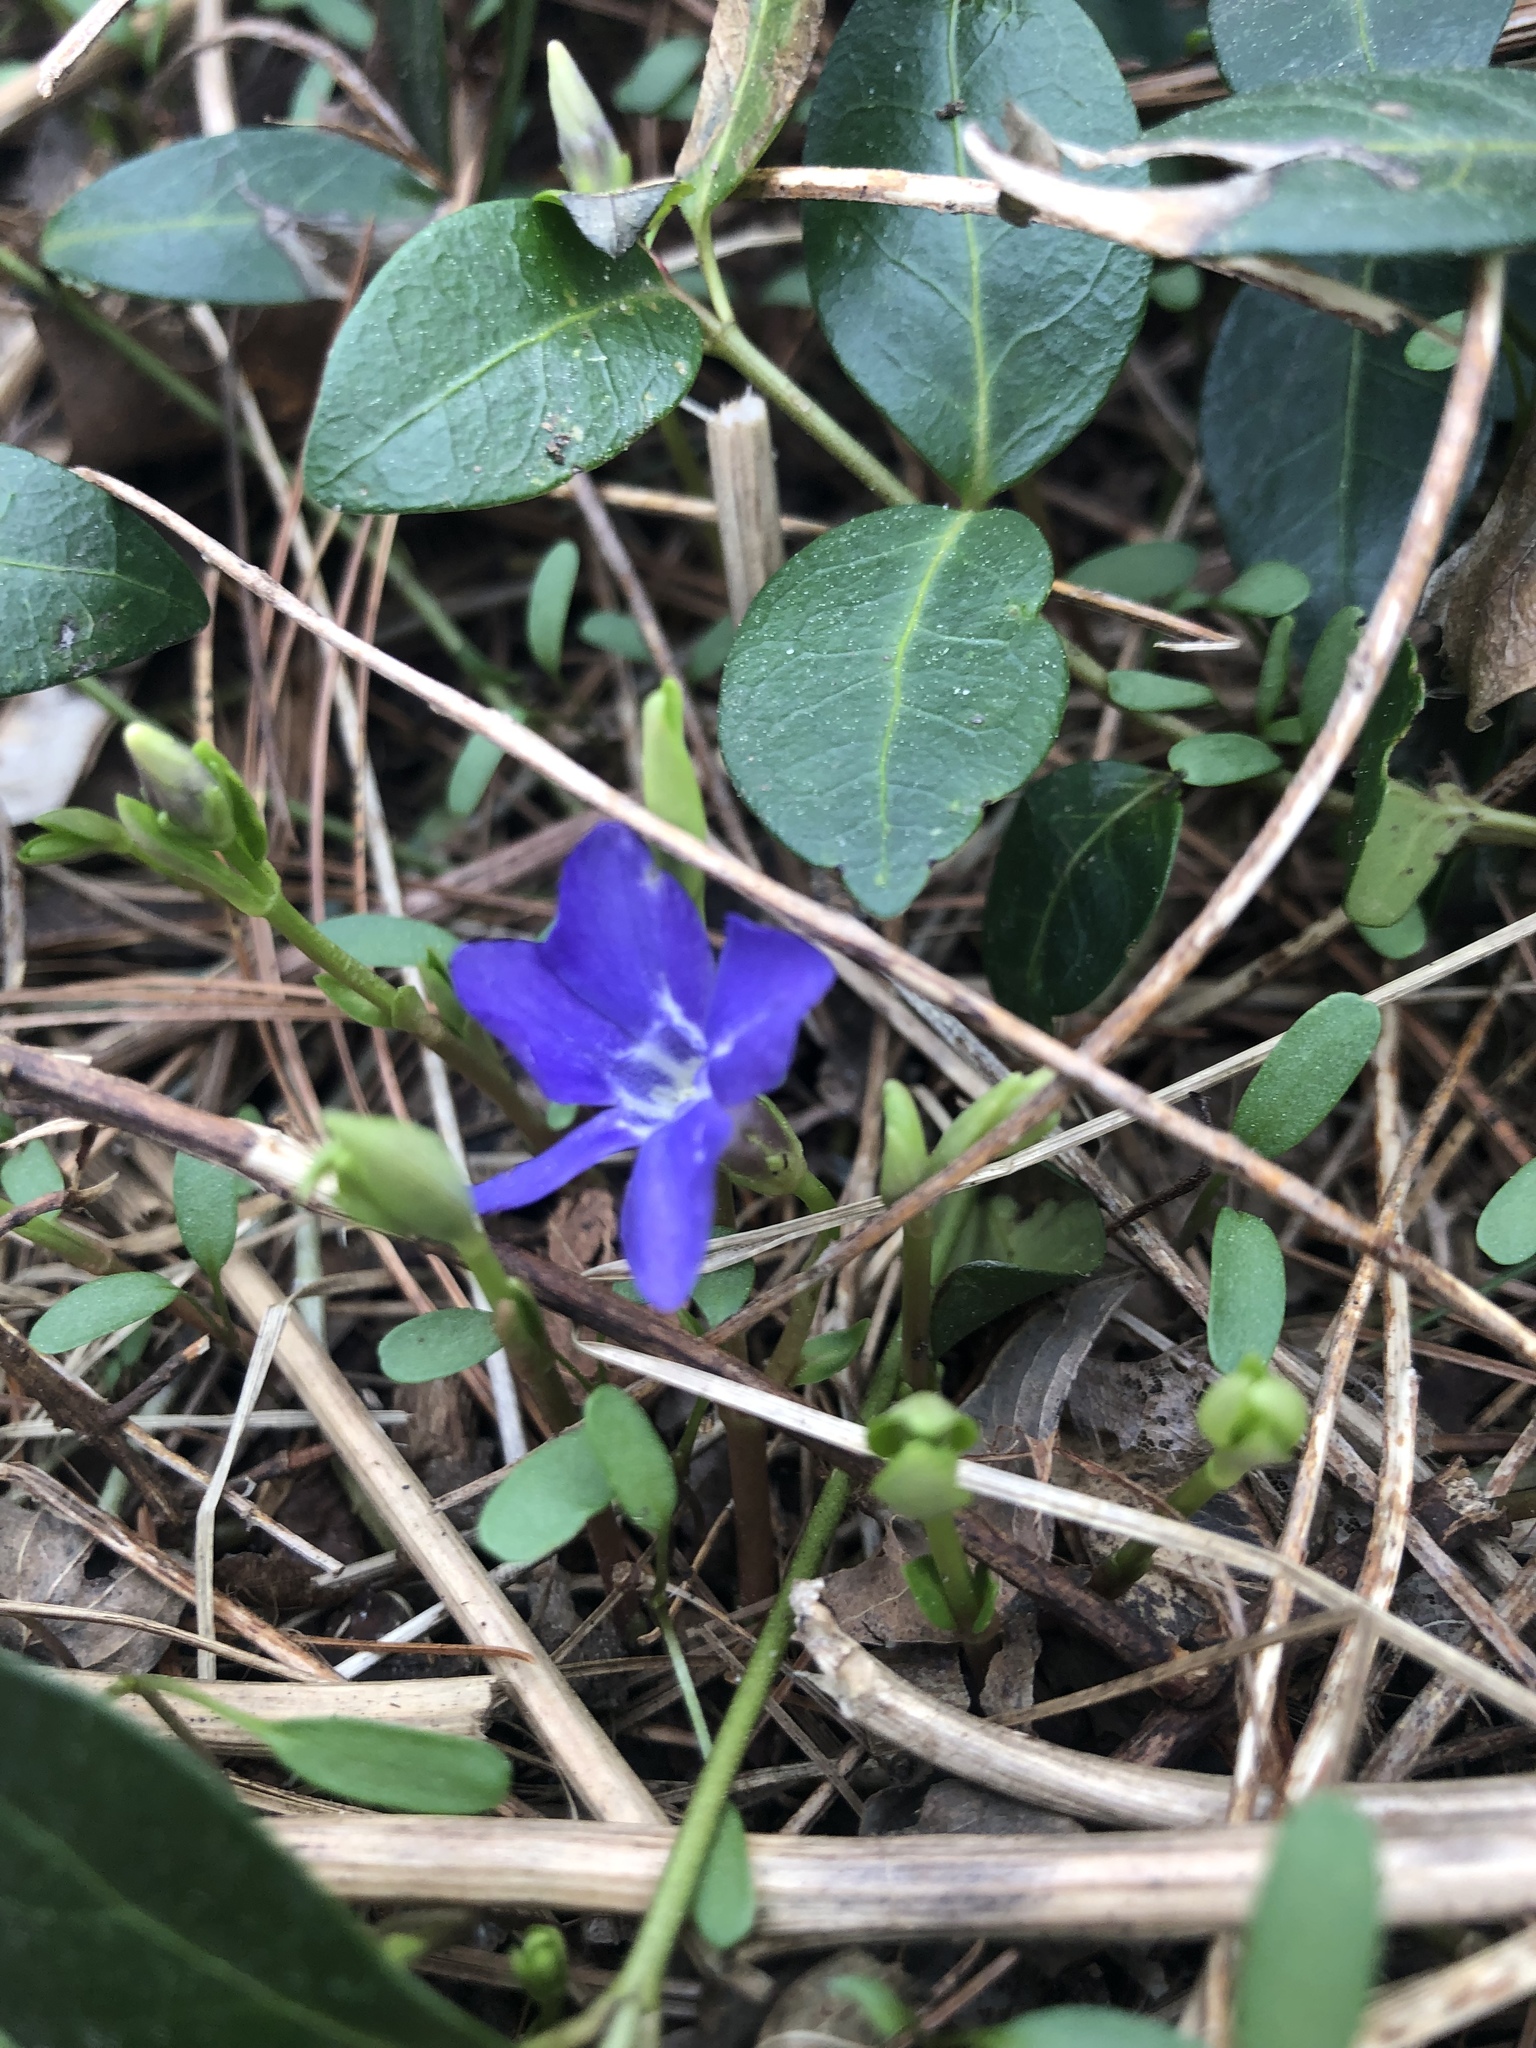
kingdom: Plantae
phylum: Tracheophyta
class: Magnoliopsida
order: Gentianales
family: Apocynaceae
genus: Vinca
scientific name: Vinca minor
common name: Lesser periwinkle
